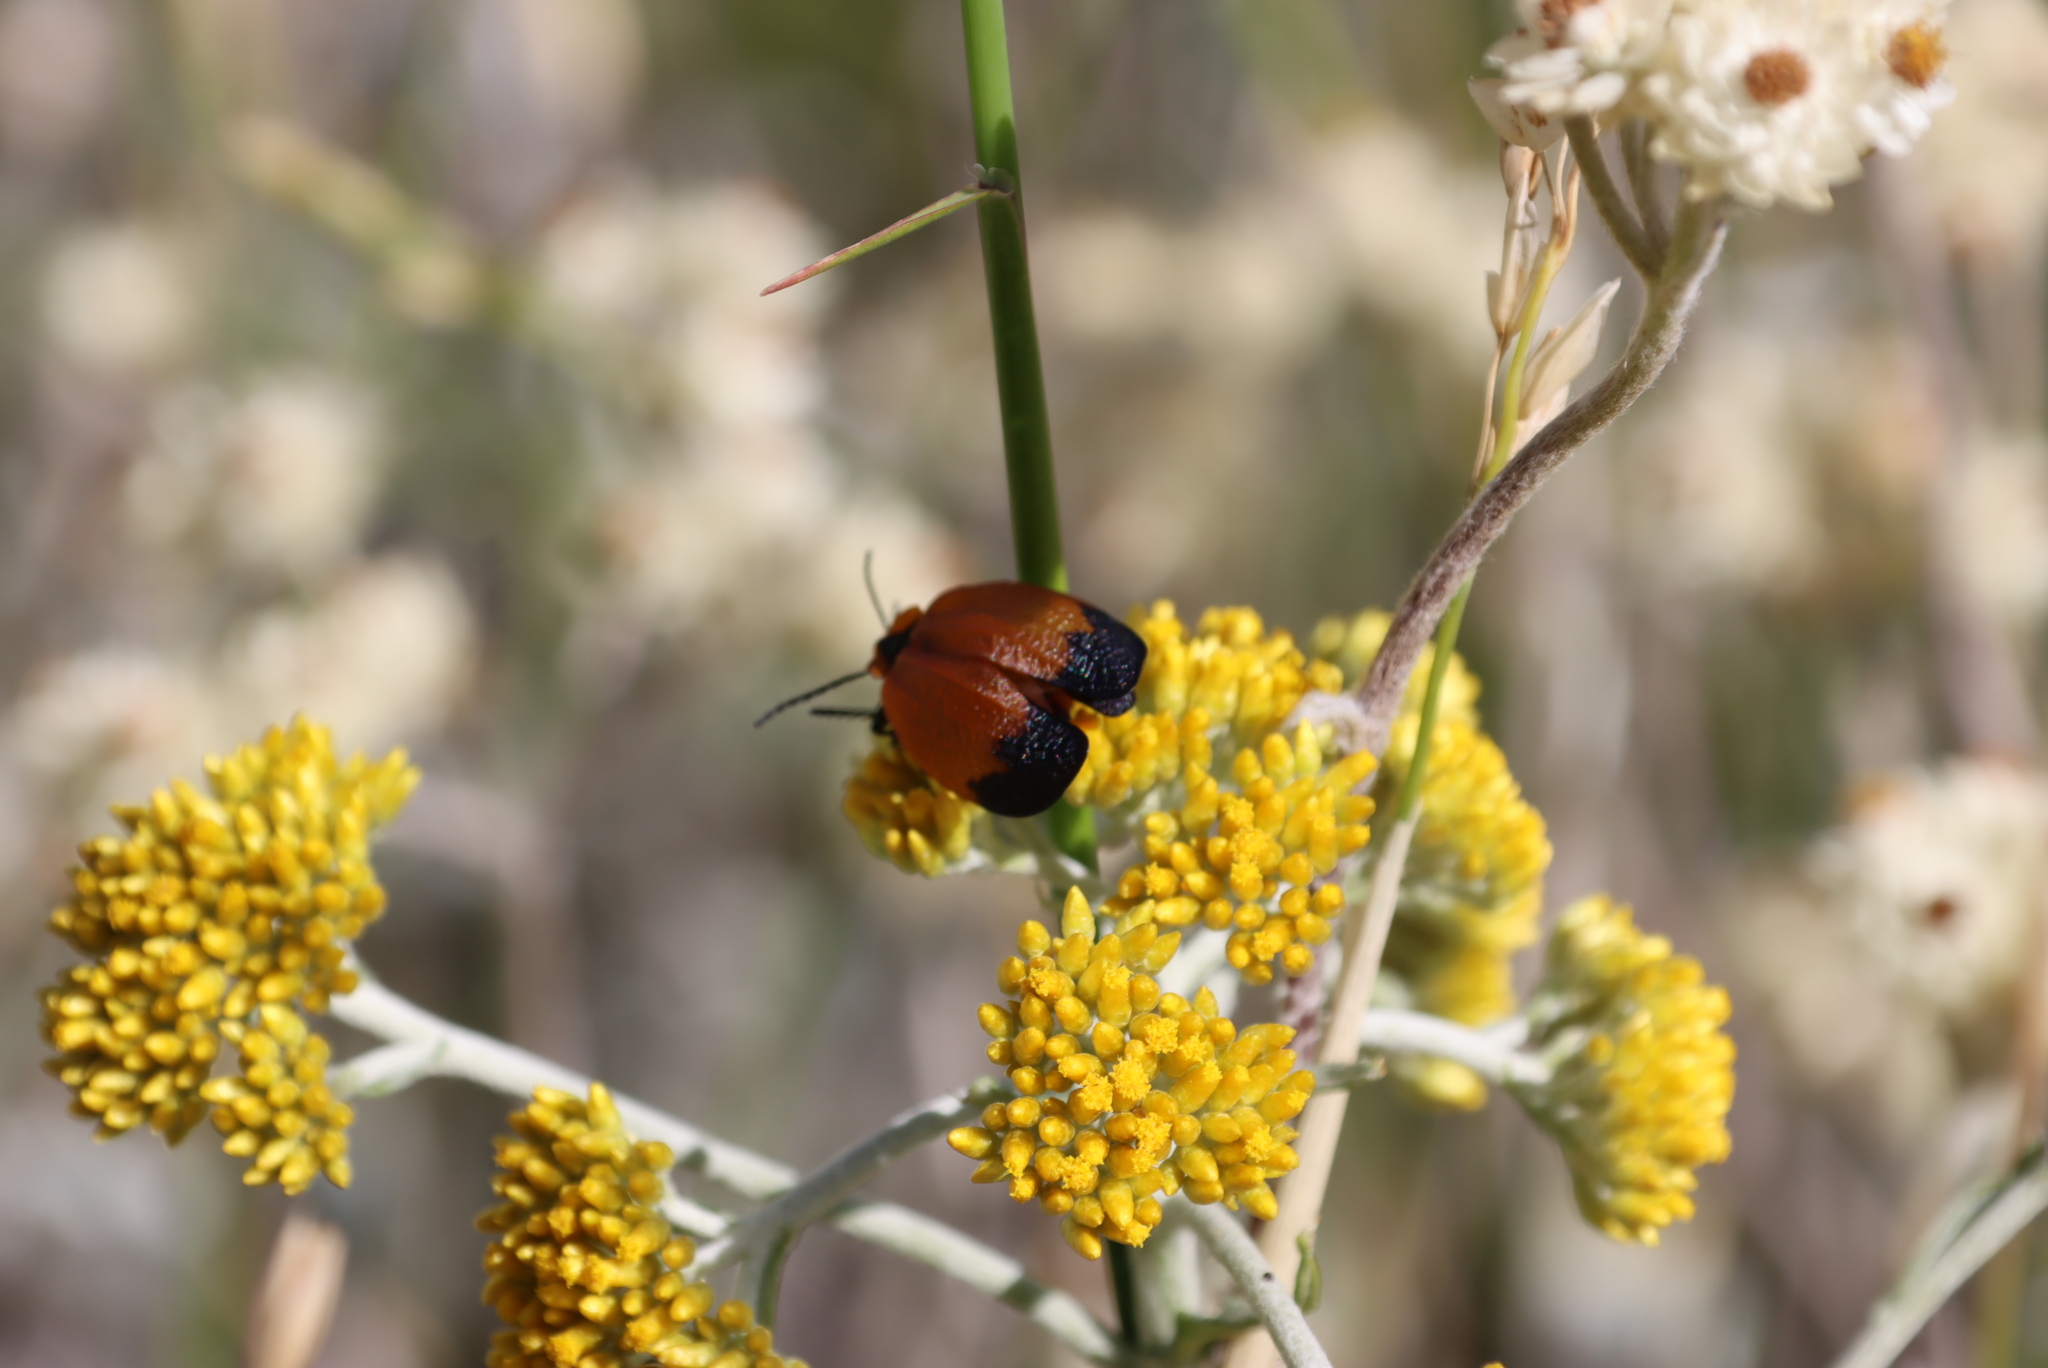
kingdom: Plantae
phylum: Tracheophyta
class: Magnoliopsida
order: Asterales
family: Asteraceae
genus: Helichrysum
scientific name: Helichrysum cymosum
